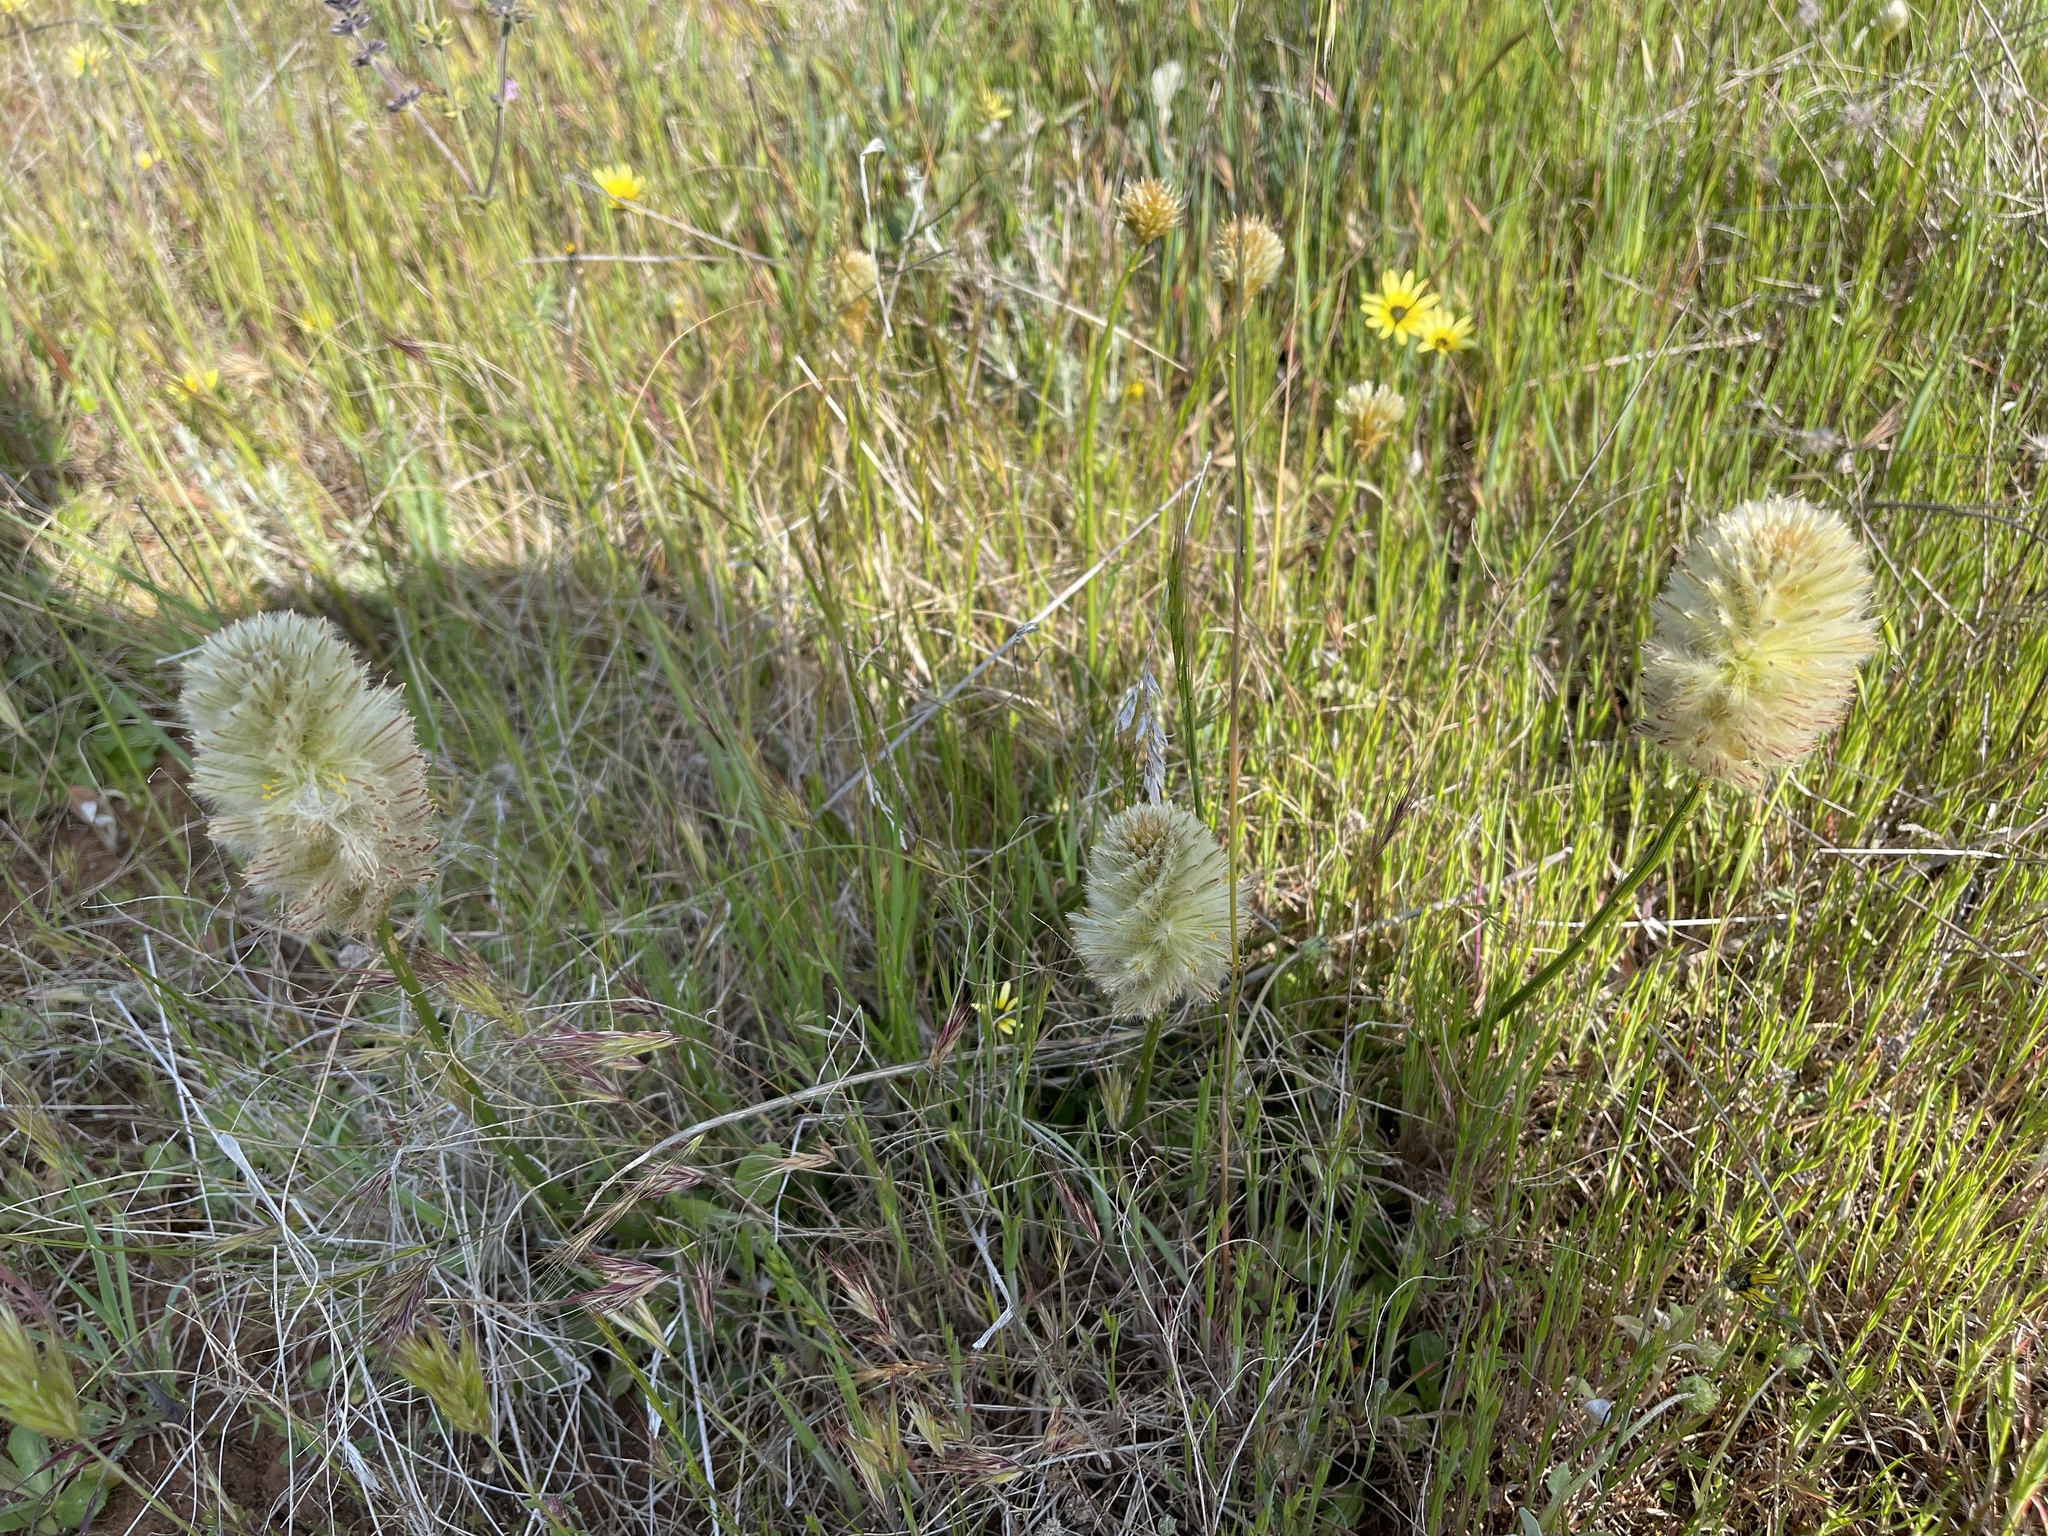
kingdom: Plantae
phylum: Tracheophyta
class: Magnoliopsida
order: Caryophyllales
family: Amaranthaceae
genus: Ptilotus
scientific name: Ptilotus macrocephalus
